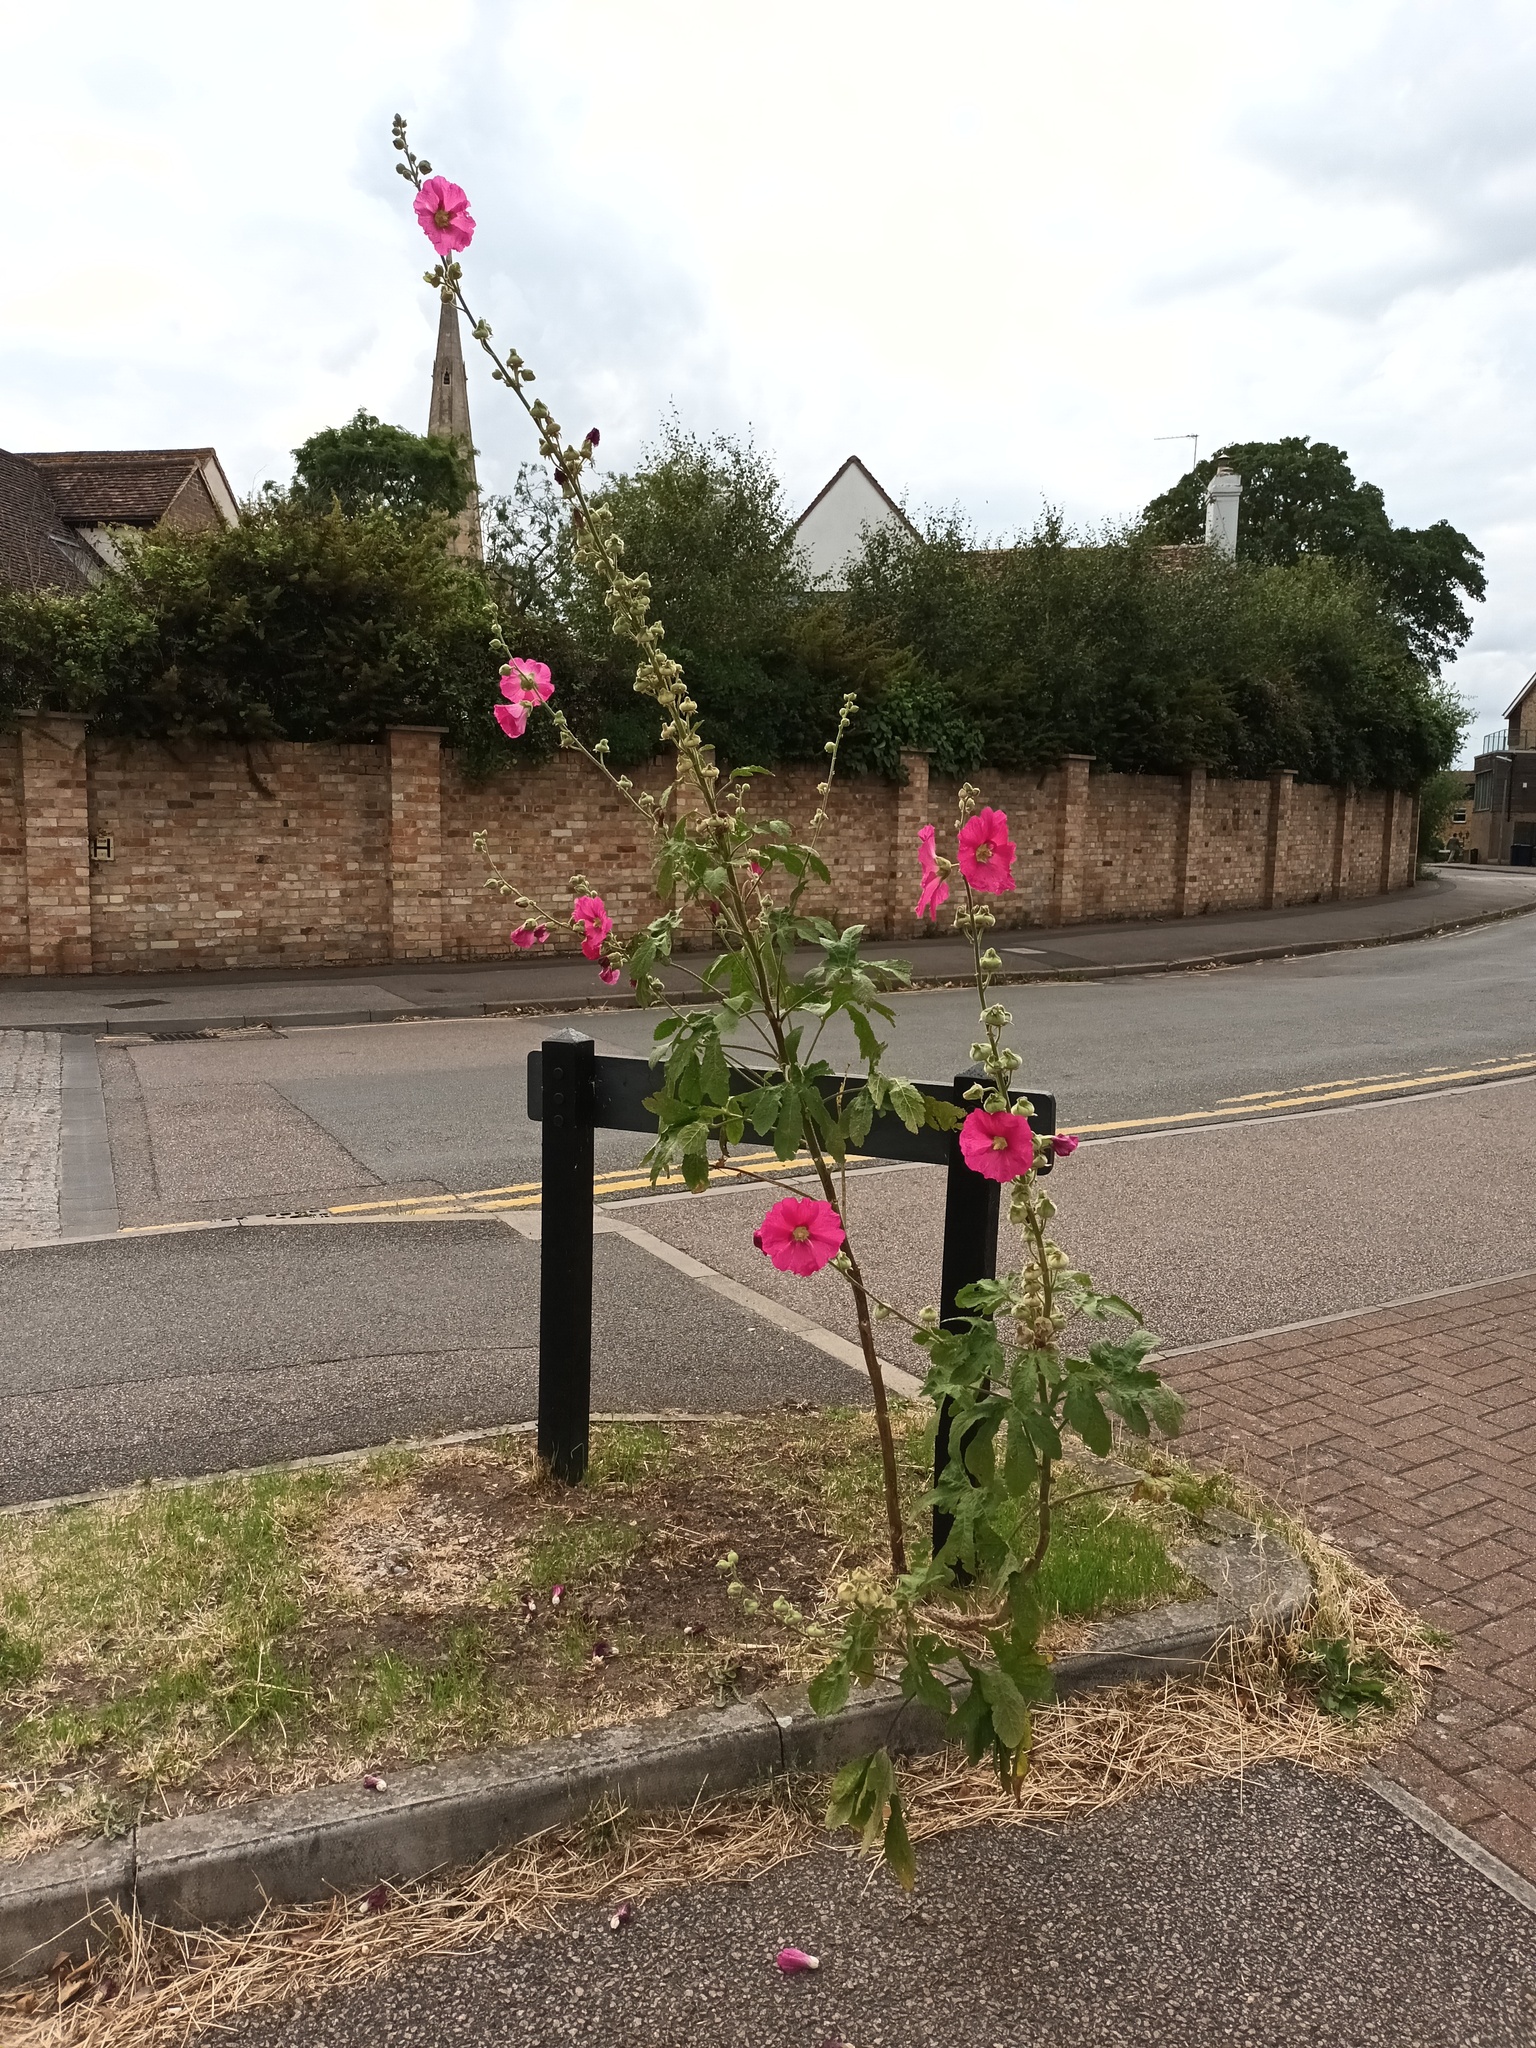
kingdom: Plantae
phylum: Tracheophyta
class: Magnoliopsida
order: Malvales
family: Malvaceae
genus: Alcea
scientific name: Alcea rosea
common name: Hollyhock
